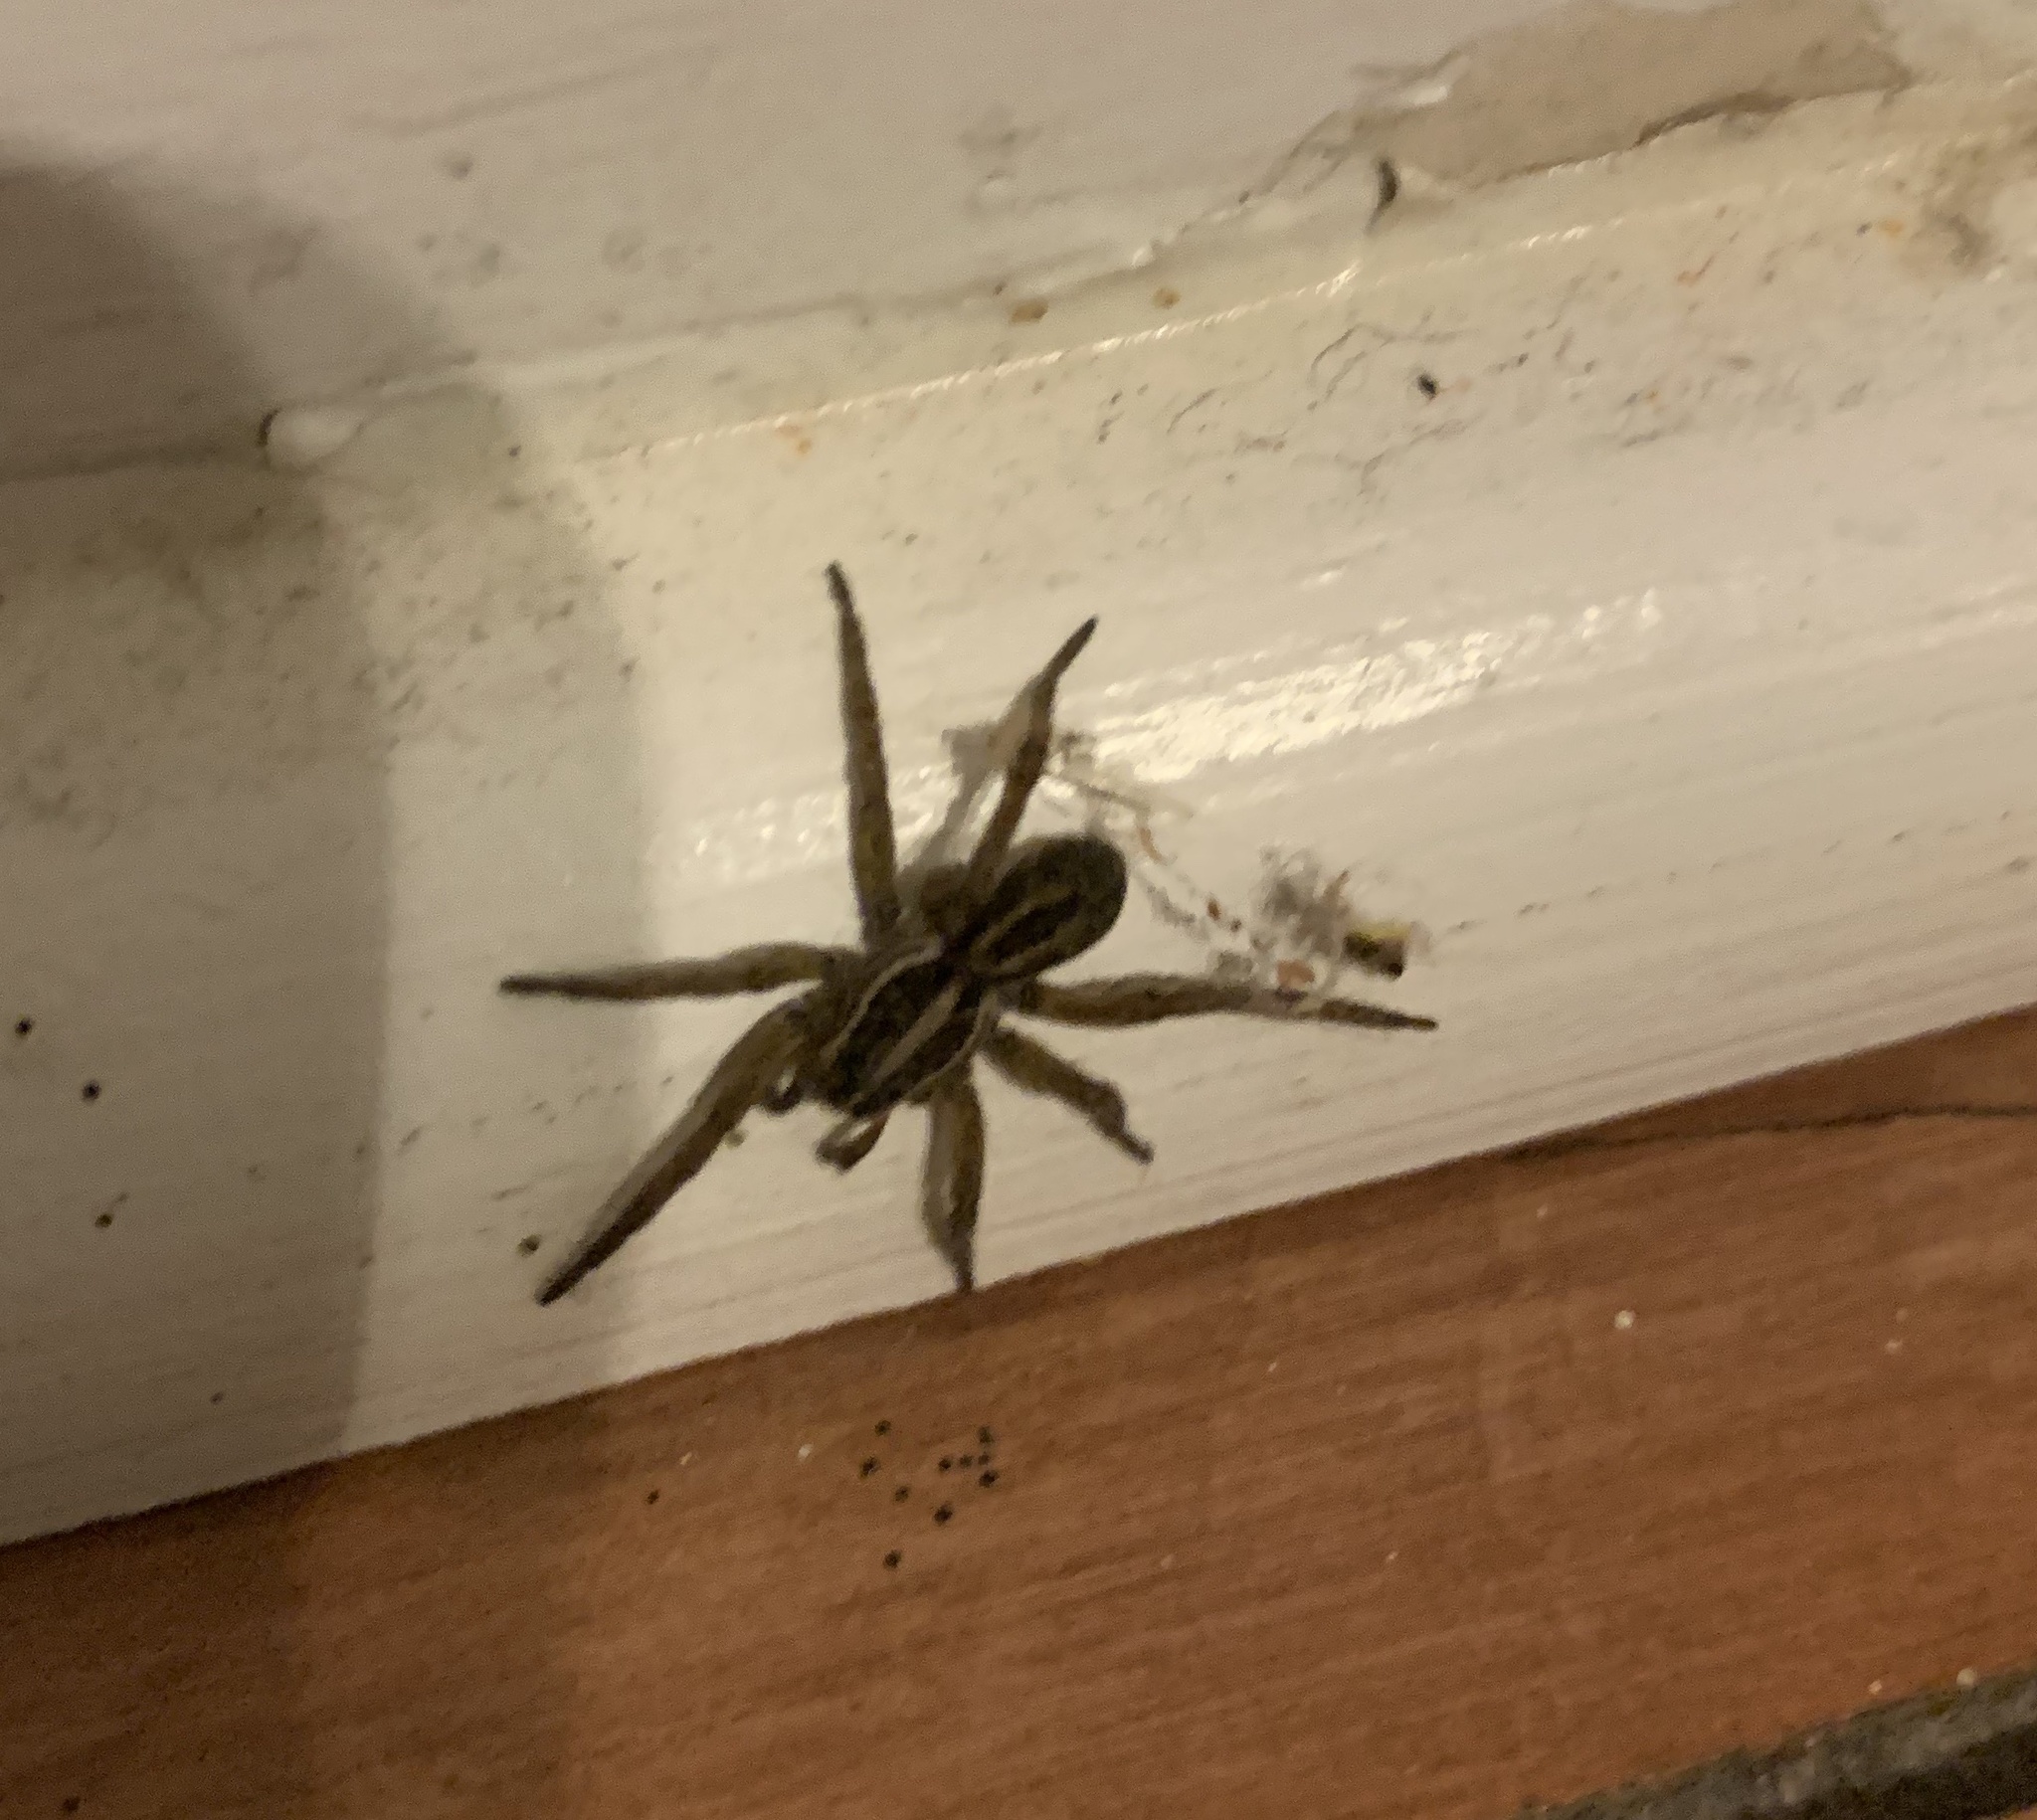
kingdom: Animalia
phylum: Arthropoda
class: Arachnida
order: Araneae
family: Lycosidae
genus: Tigrosa
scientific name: Tigrosa annexa
